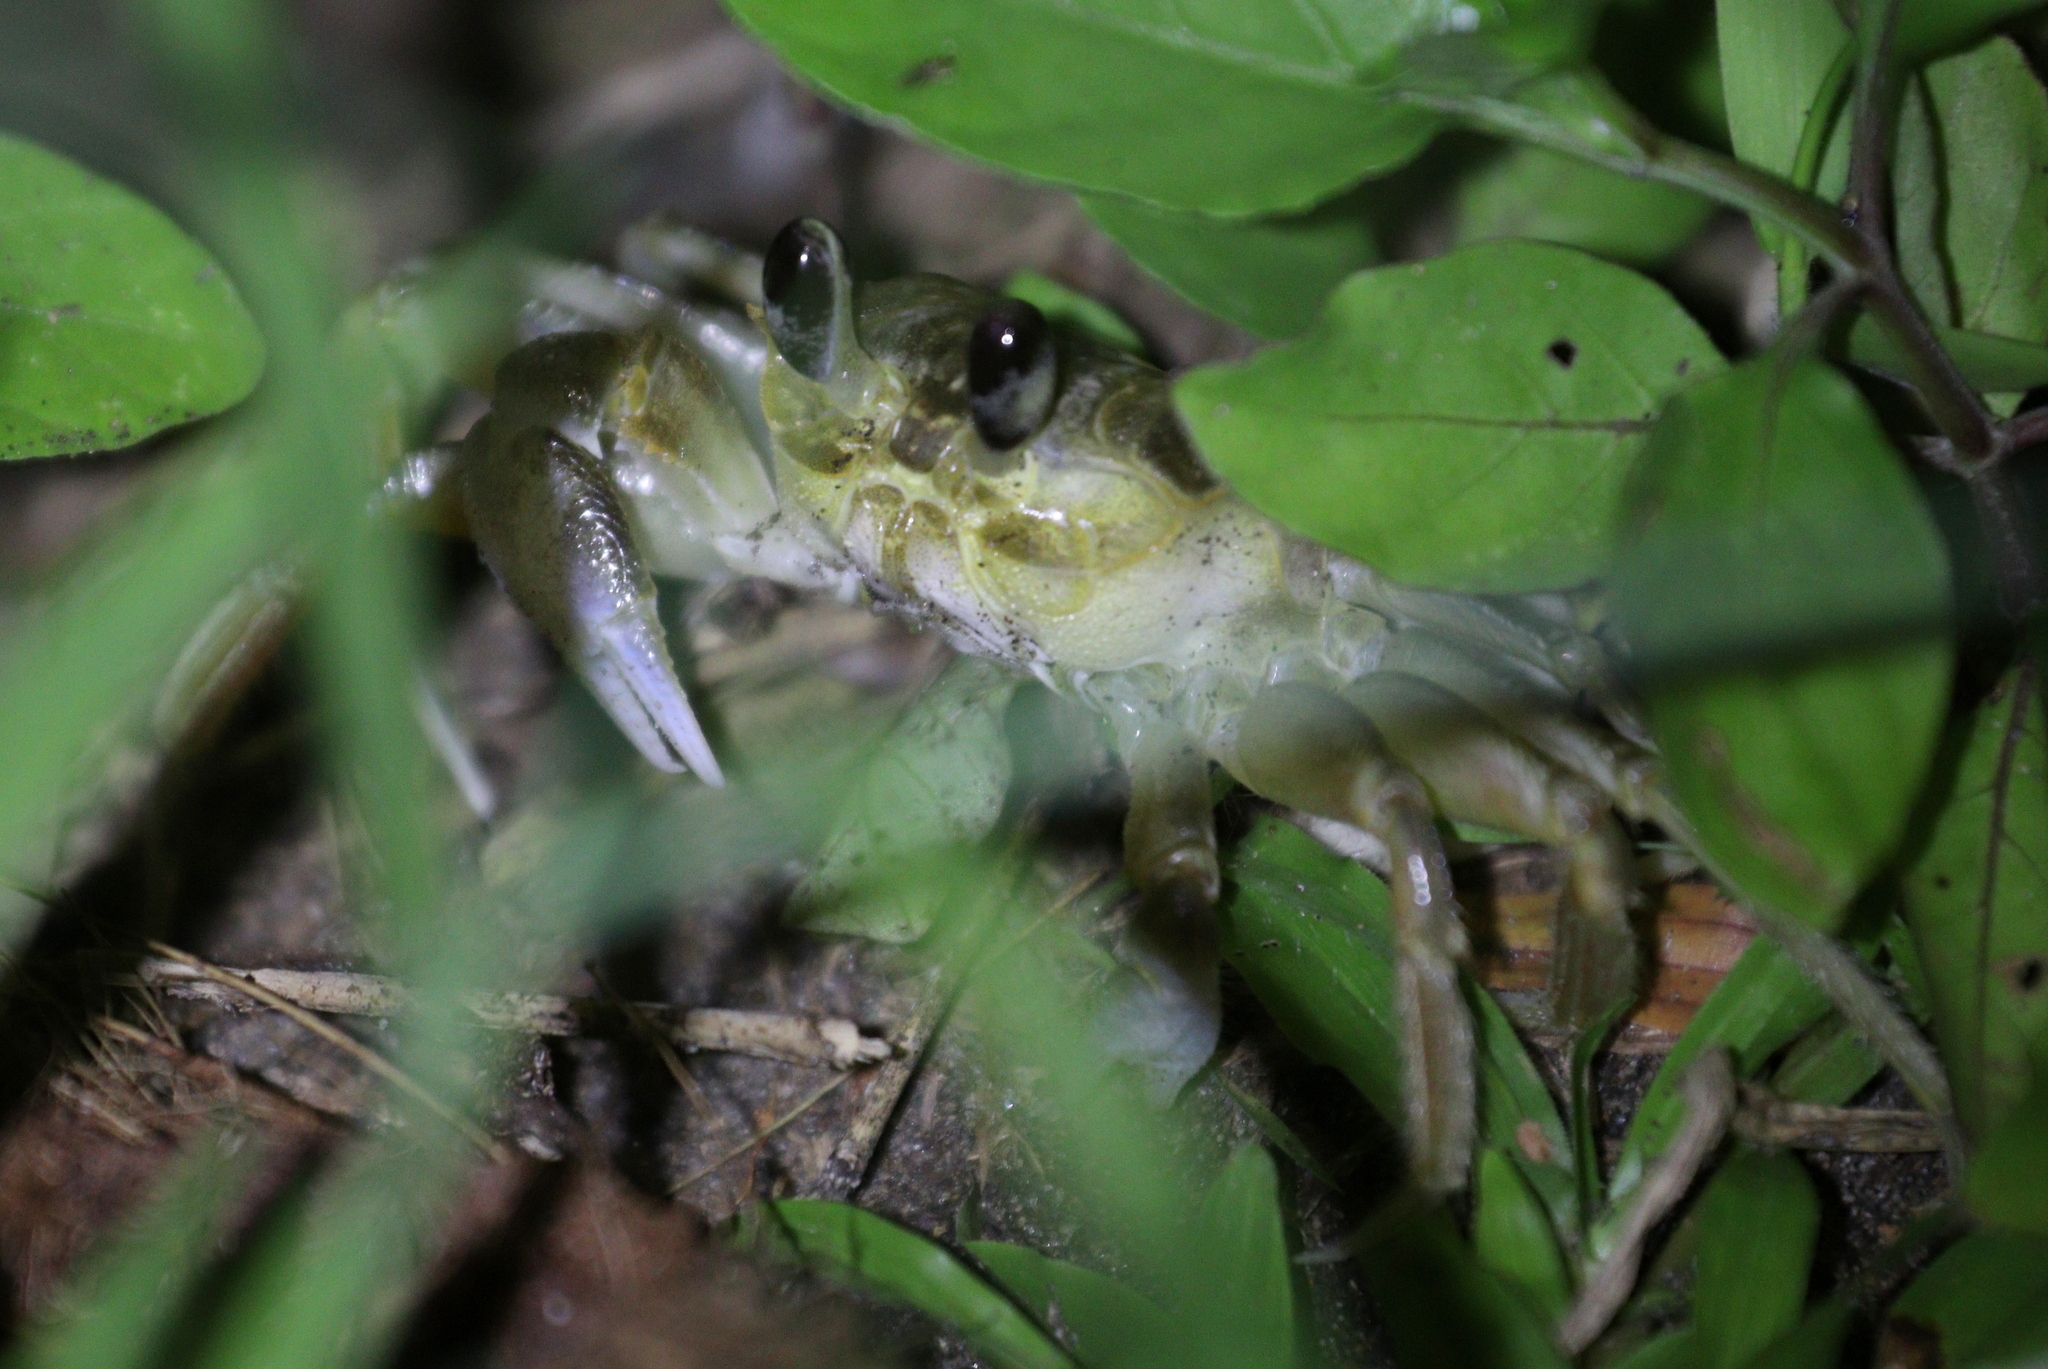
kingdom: Animalia
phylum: Arthropoda
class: Malacostraca
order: Decapoda
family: Ocypodidae
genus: Ocypode
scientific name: Ocypode quadrata
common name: Ghost crab
